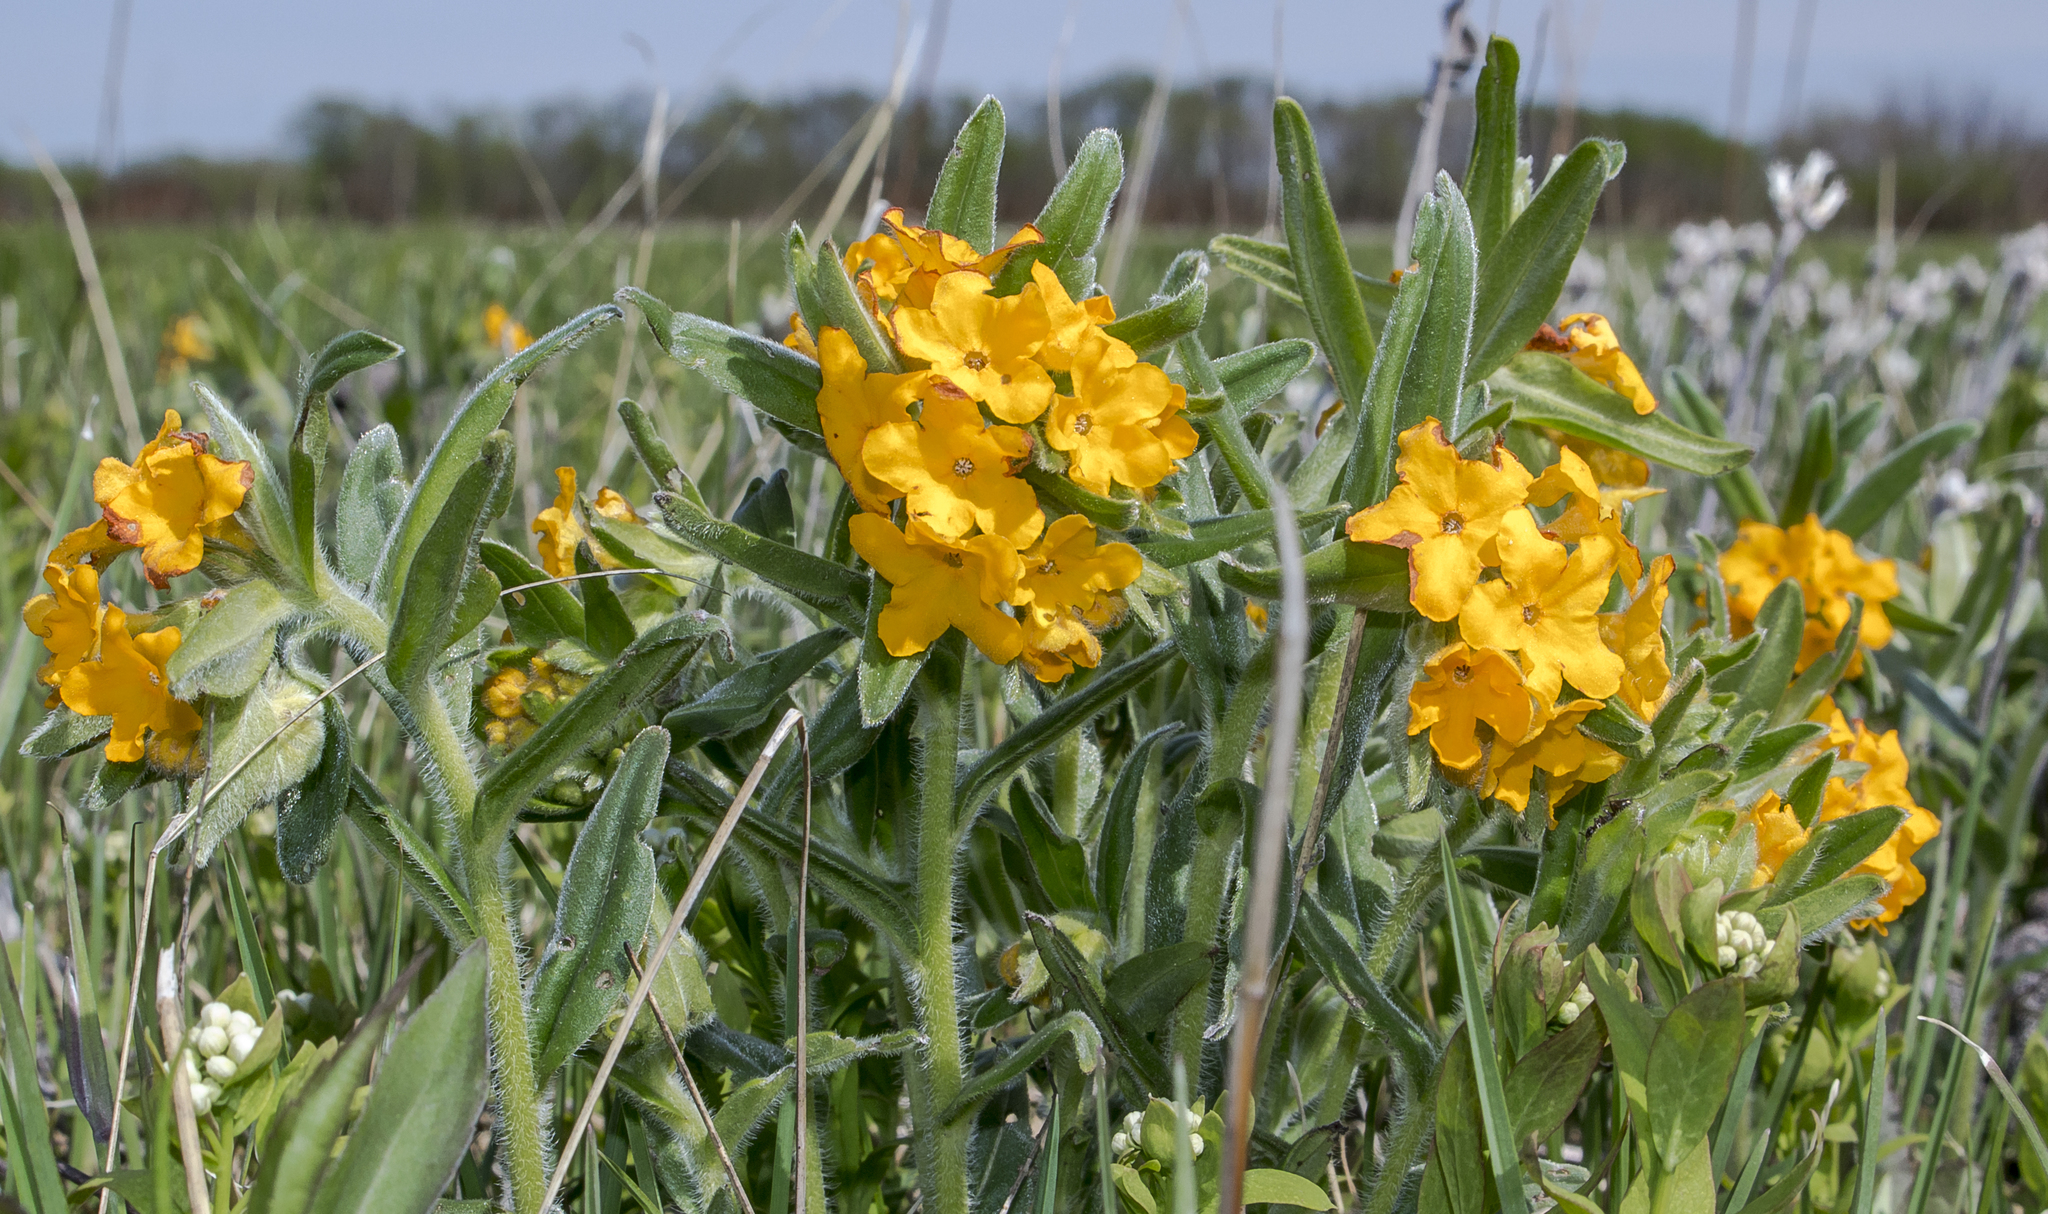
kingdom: Plantae
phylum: Tracheophyta
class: Magnoliopsida
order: Boraginales
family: Boraginaceae
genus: Lithospermum
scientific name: Lithospermum canescens
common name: Hoary puccoon
